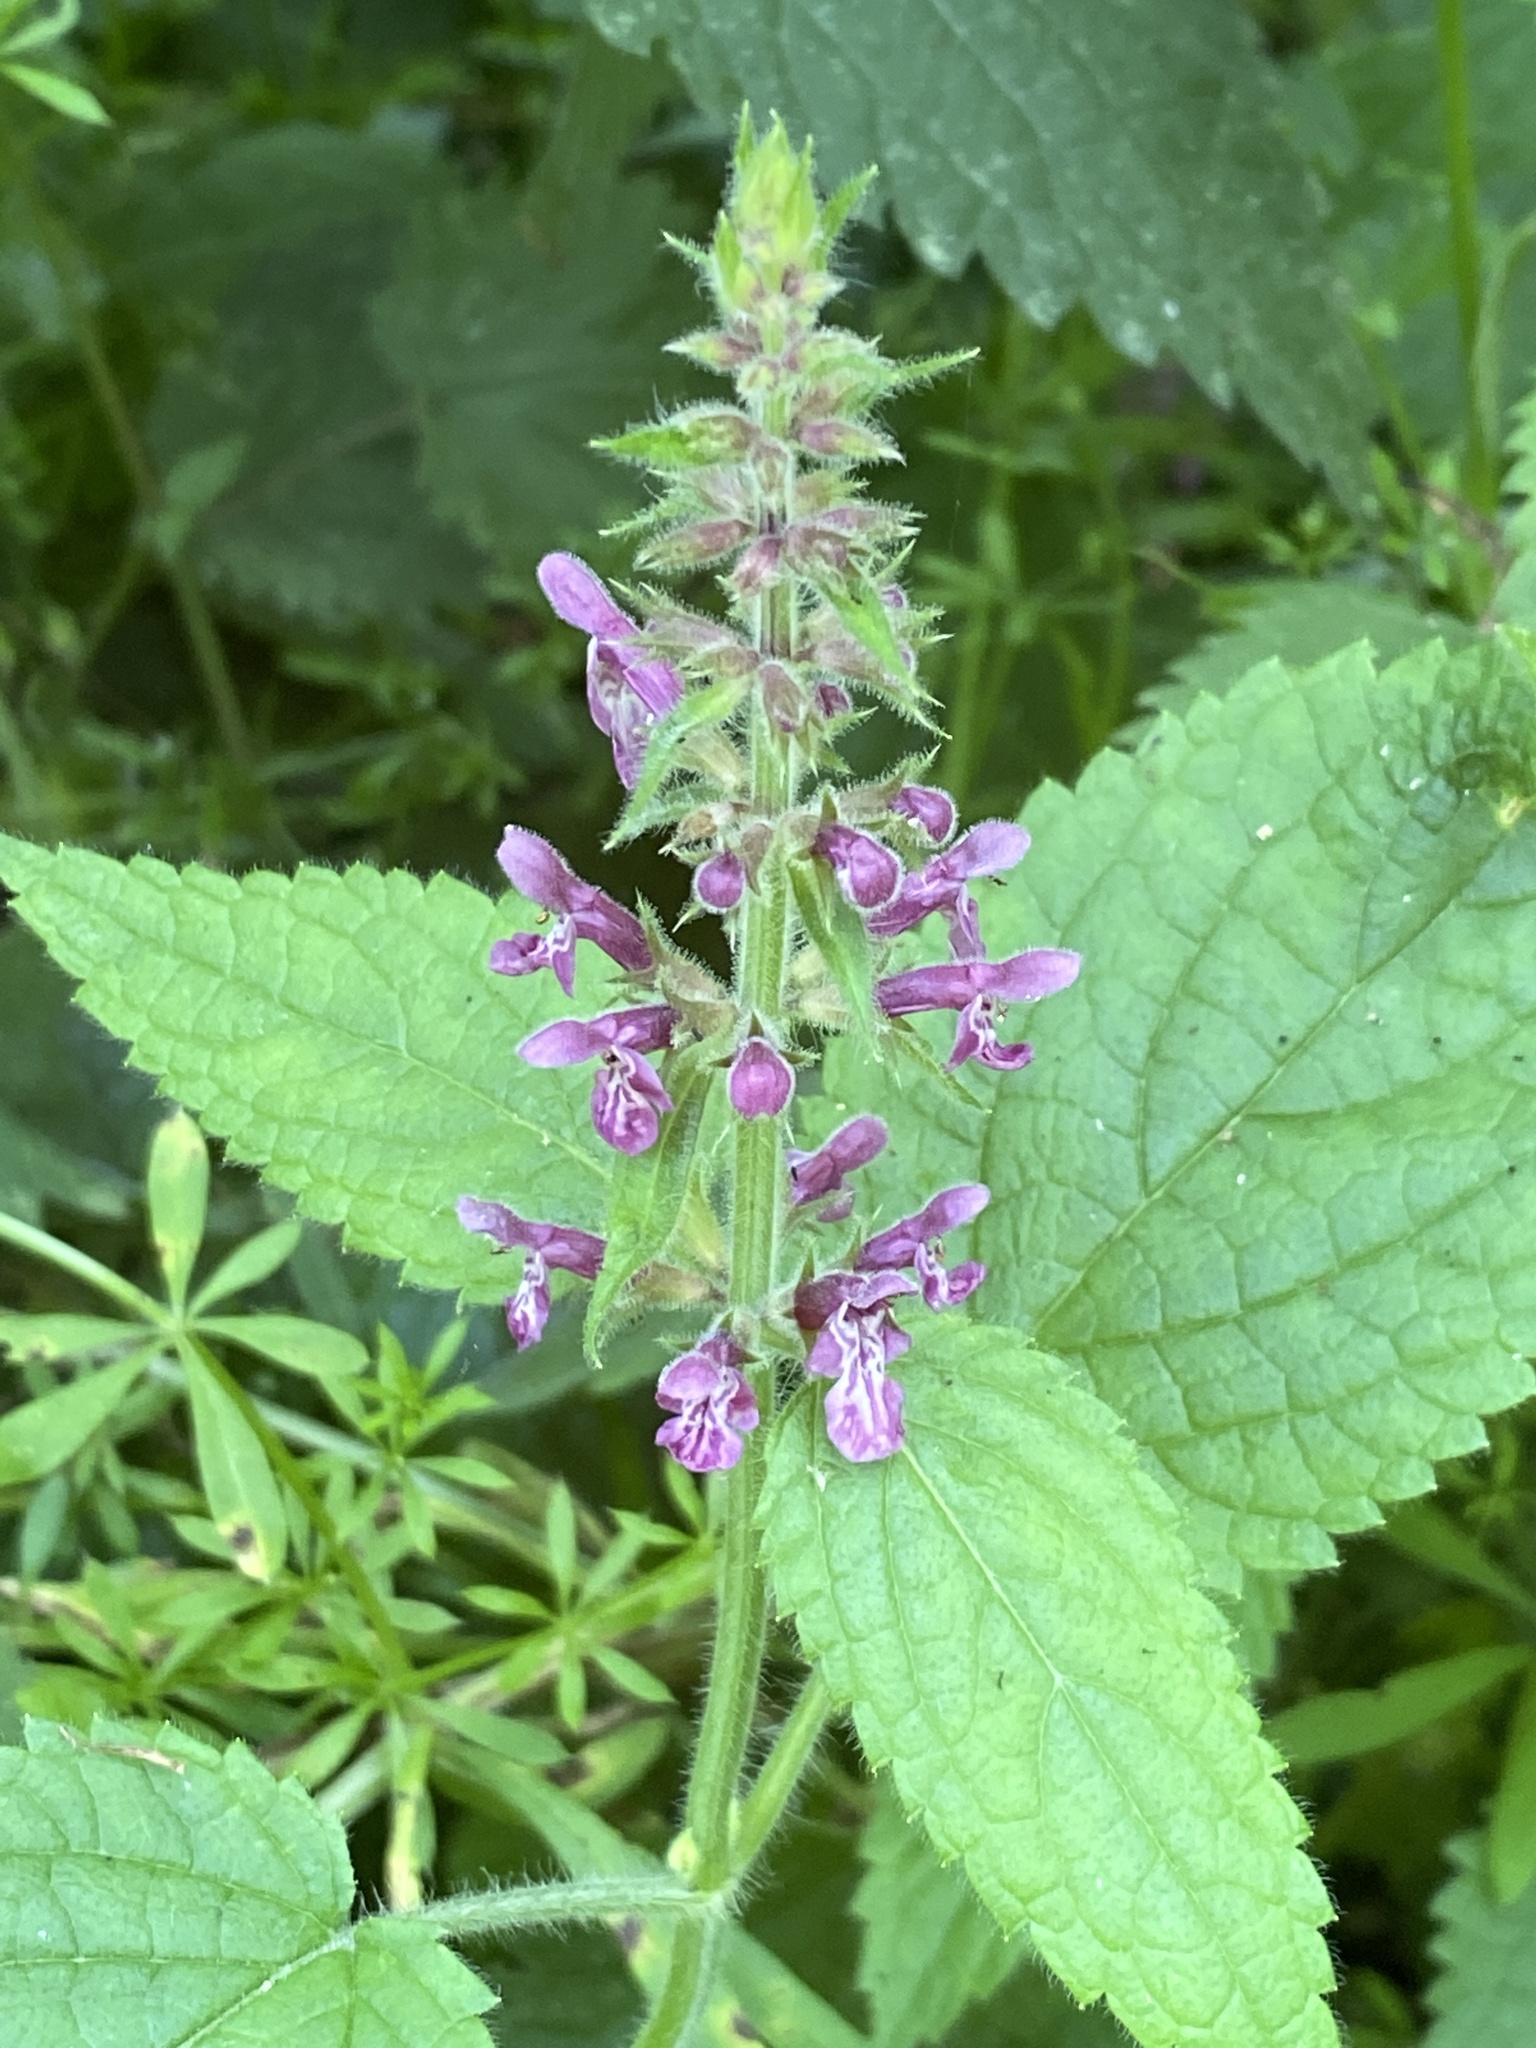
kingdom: Plantae
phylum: Tracheophyta
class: Magnoliopsida
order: Lamiales
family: Lamiaceae
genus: Stachys
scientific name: Stachys sylvatica
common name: Hedge woundwort
